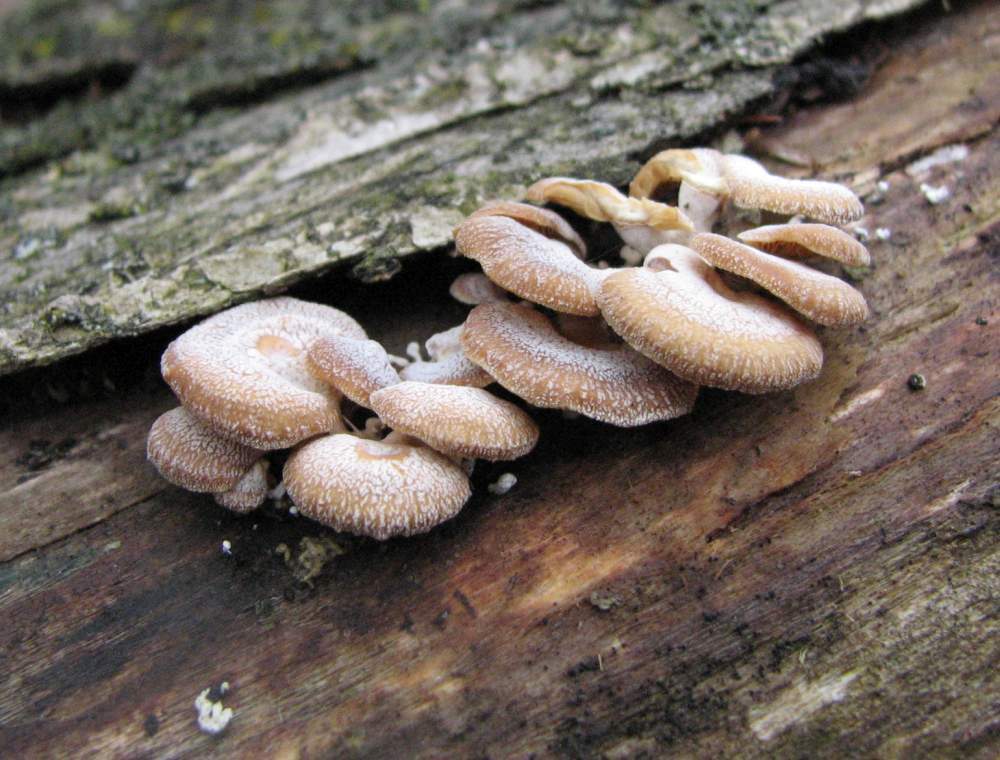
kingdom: Fungi
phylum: Basidiomycota
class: Agaricomycetes
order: Agaricales
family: Mycenaceae
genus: Panellus
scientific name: Panellus stipticus
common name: Bitter oysterling
